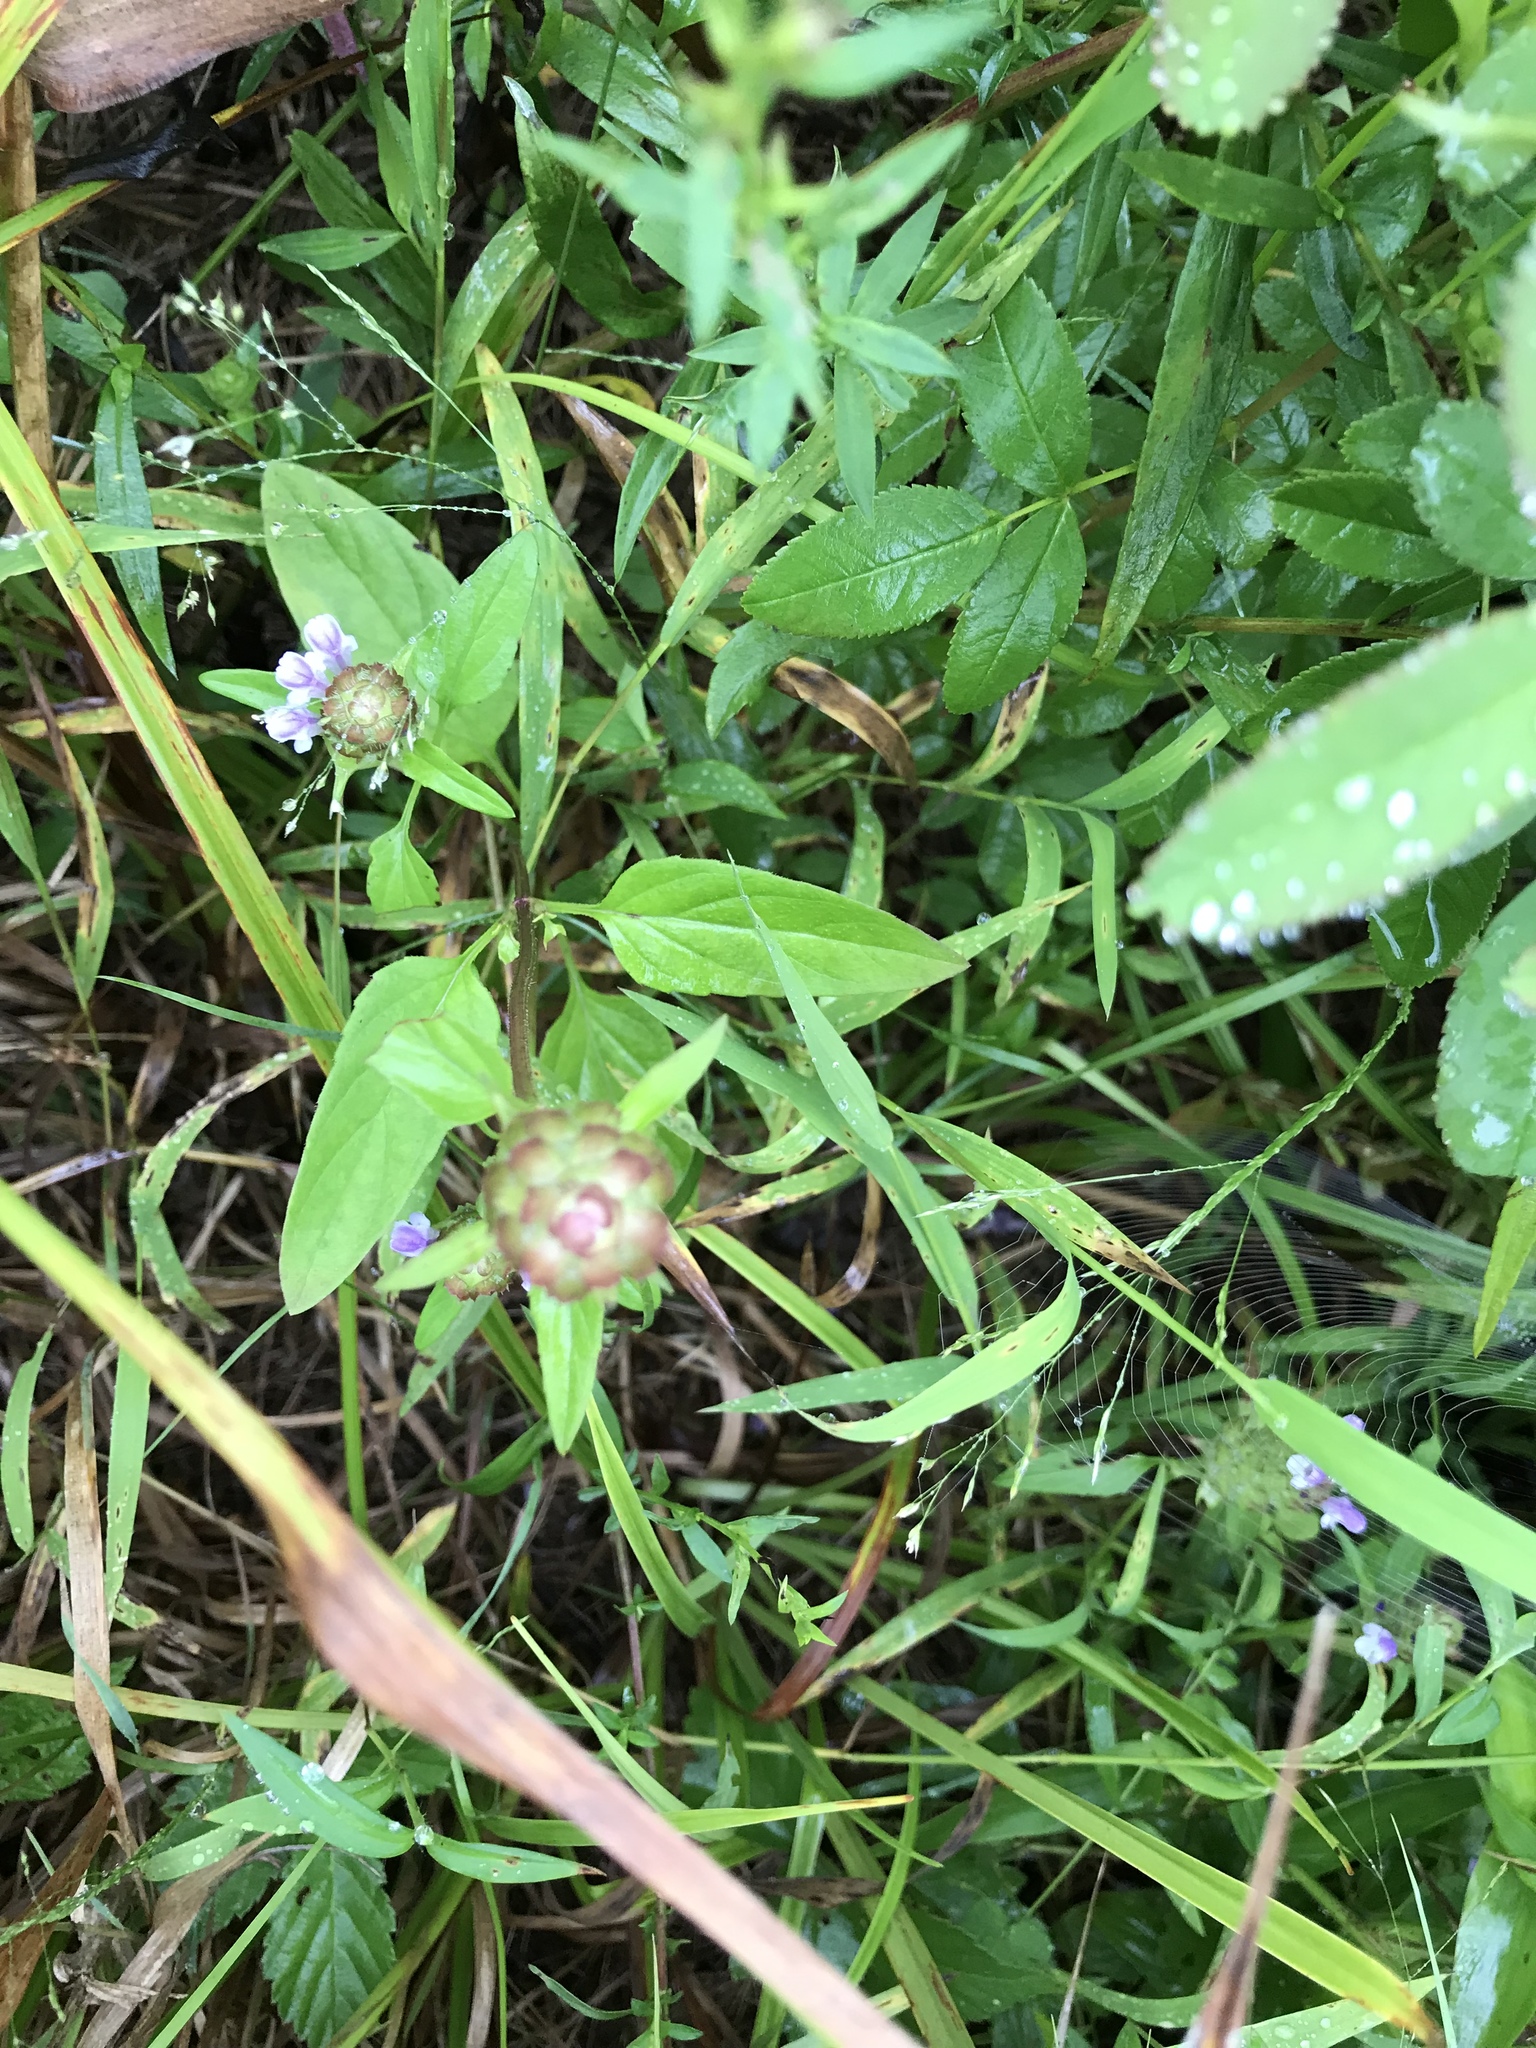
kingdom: Plantae
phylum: Tracheophyta
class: Magnoliopsida
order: Lamiales
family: Lamiaceae
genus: Prunella
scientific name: Prunella vulgaris
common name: Heal-all
